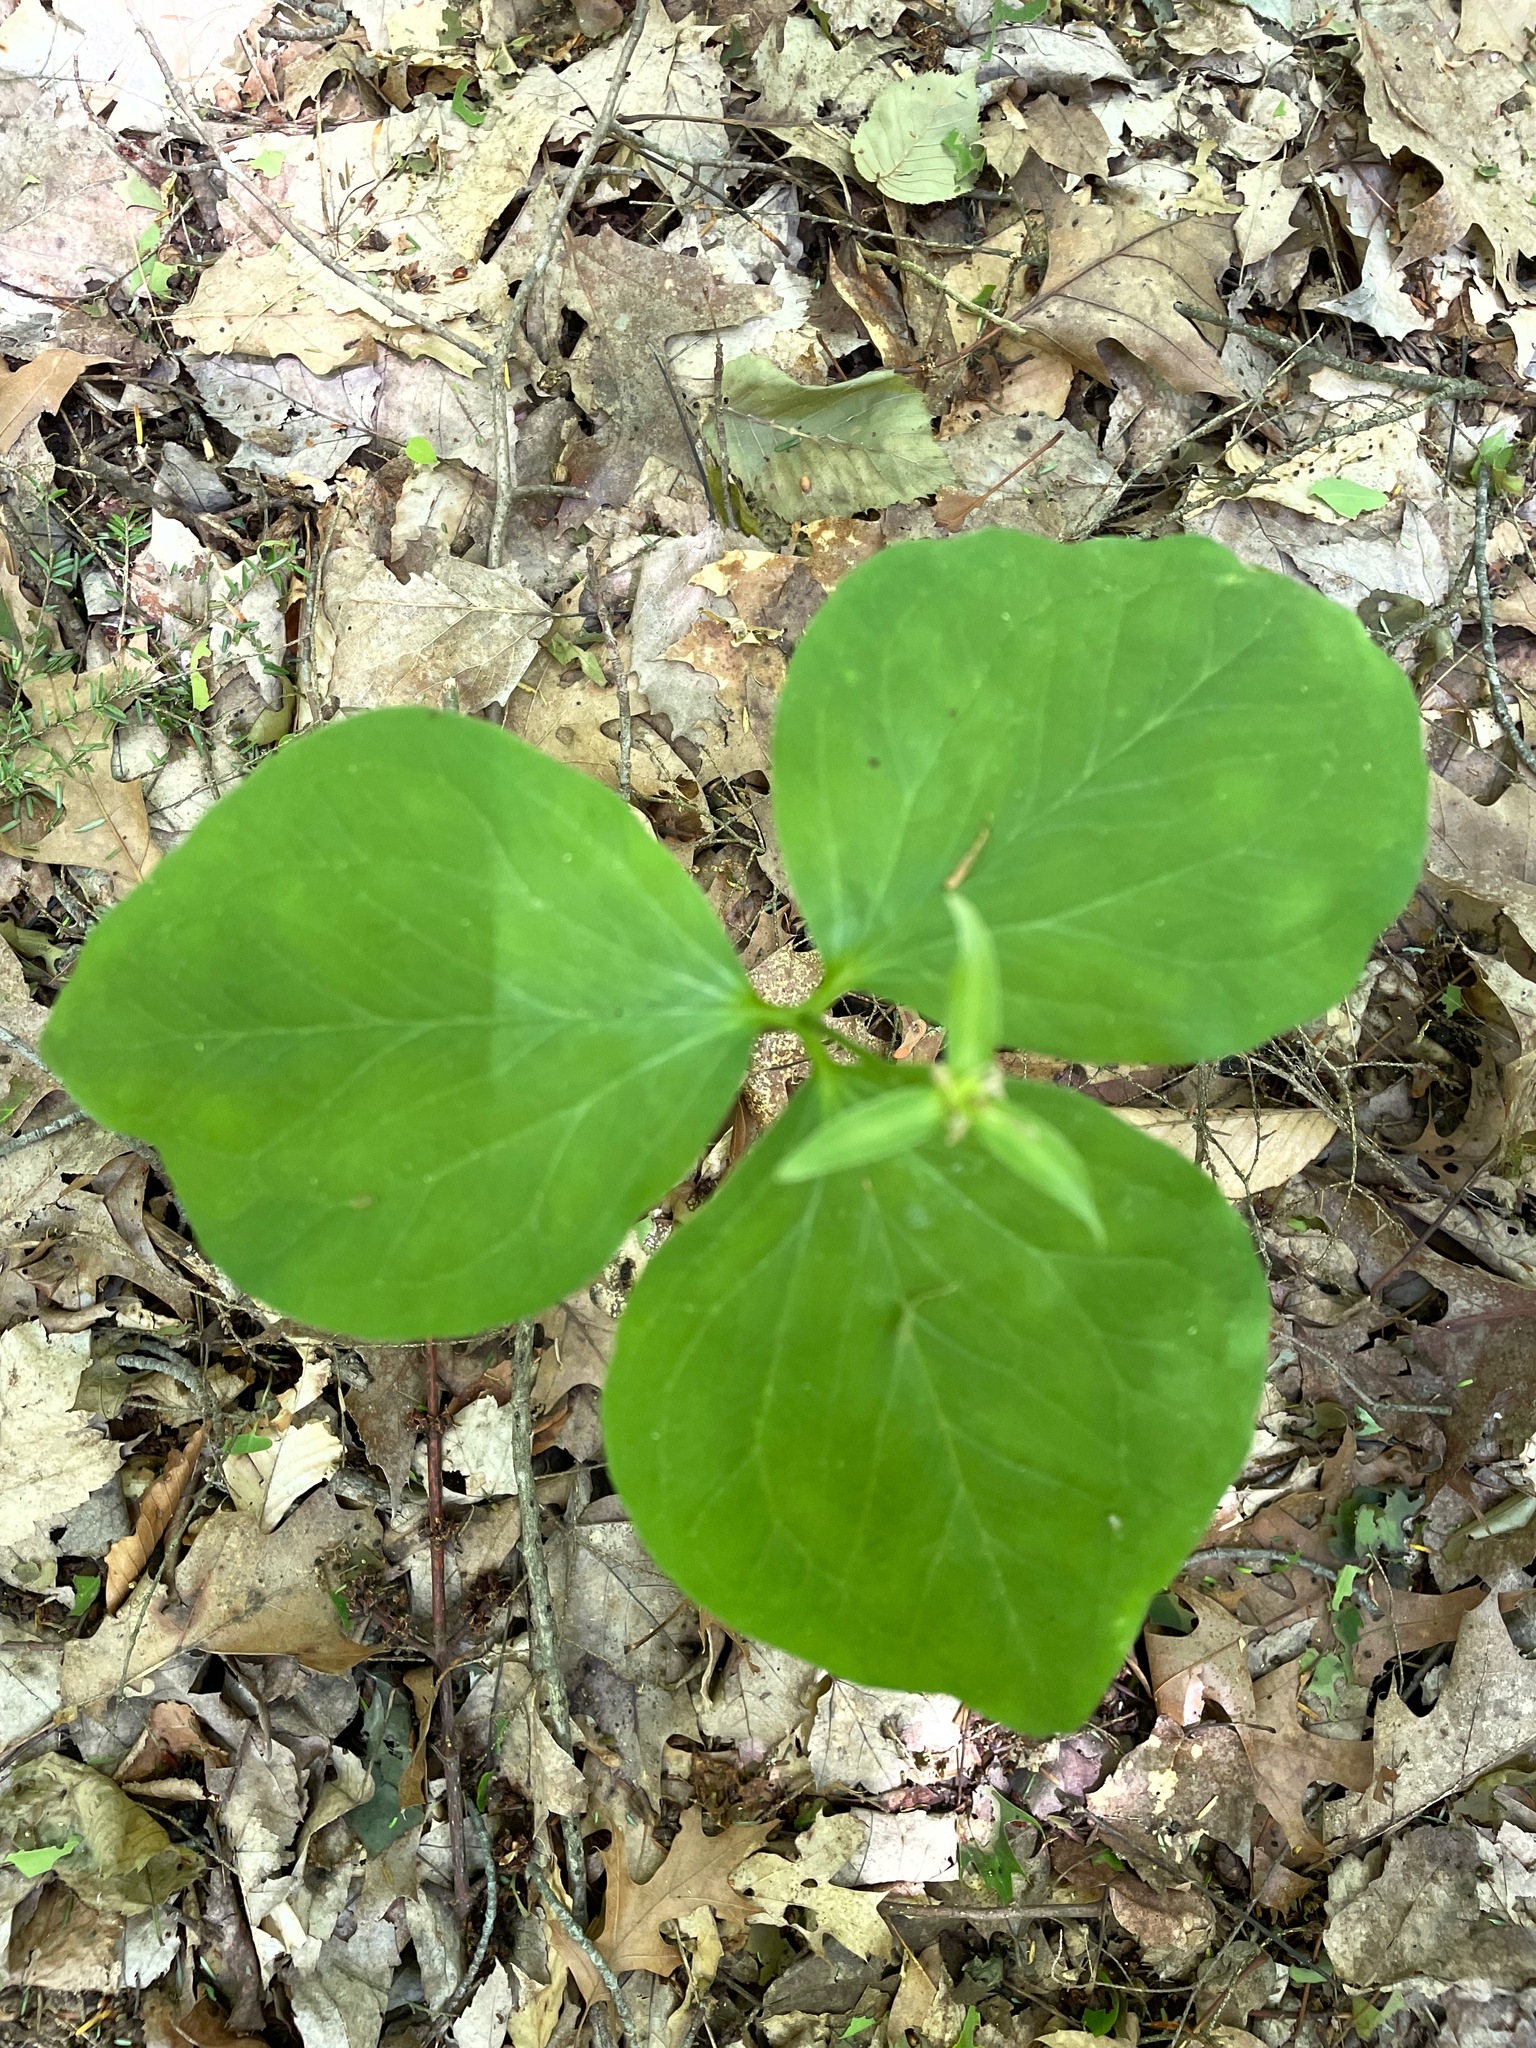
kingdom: Plantae
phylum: Tracheophyta
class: Liliopsida
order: Liliales
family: Melanthiaceae
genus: Trillium
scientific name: Trillium undulatum
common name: Paint trillium
